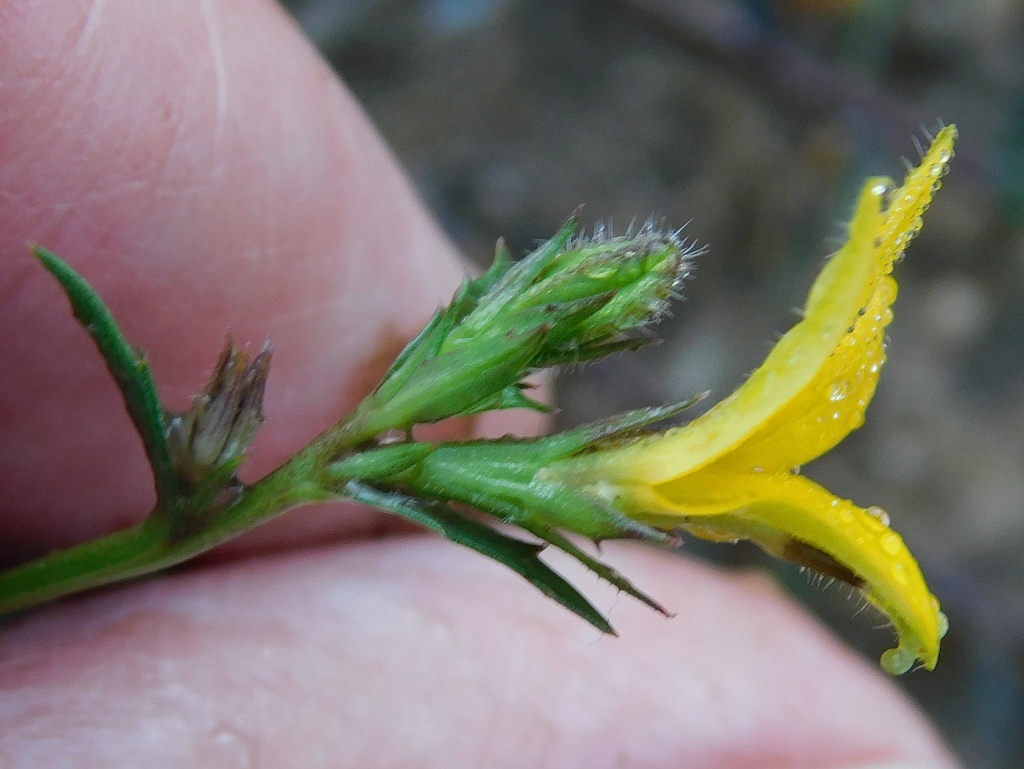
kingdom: Plantae
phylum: Tracheophyta
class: Magnoliopsida
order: Asterales
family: Campanulaceae
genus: Monopsis
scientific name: Monopsis lutea
